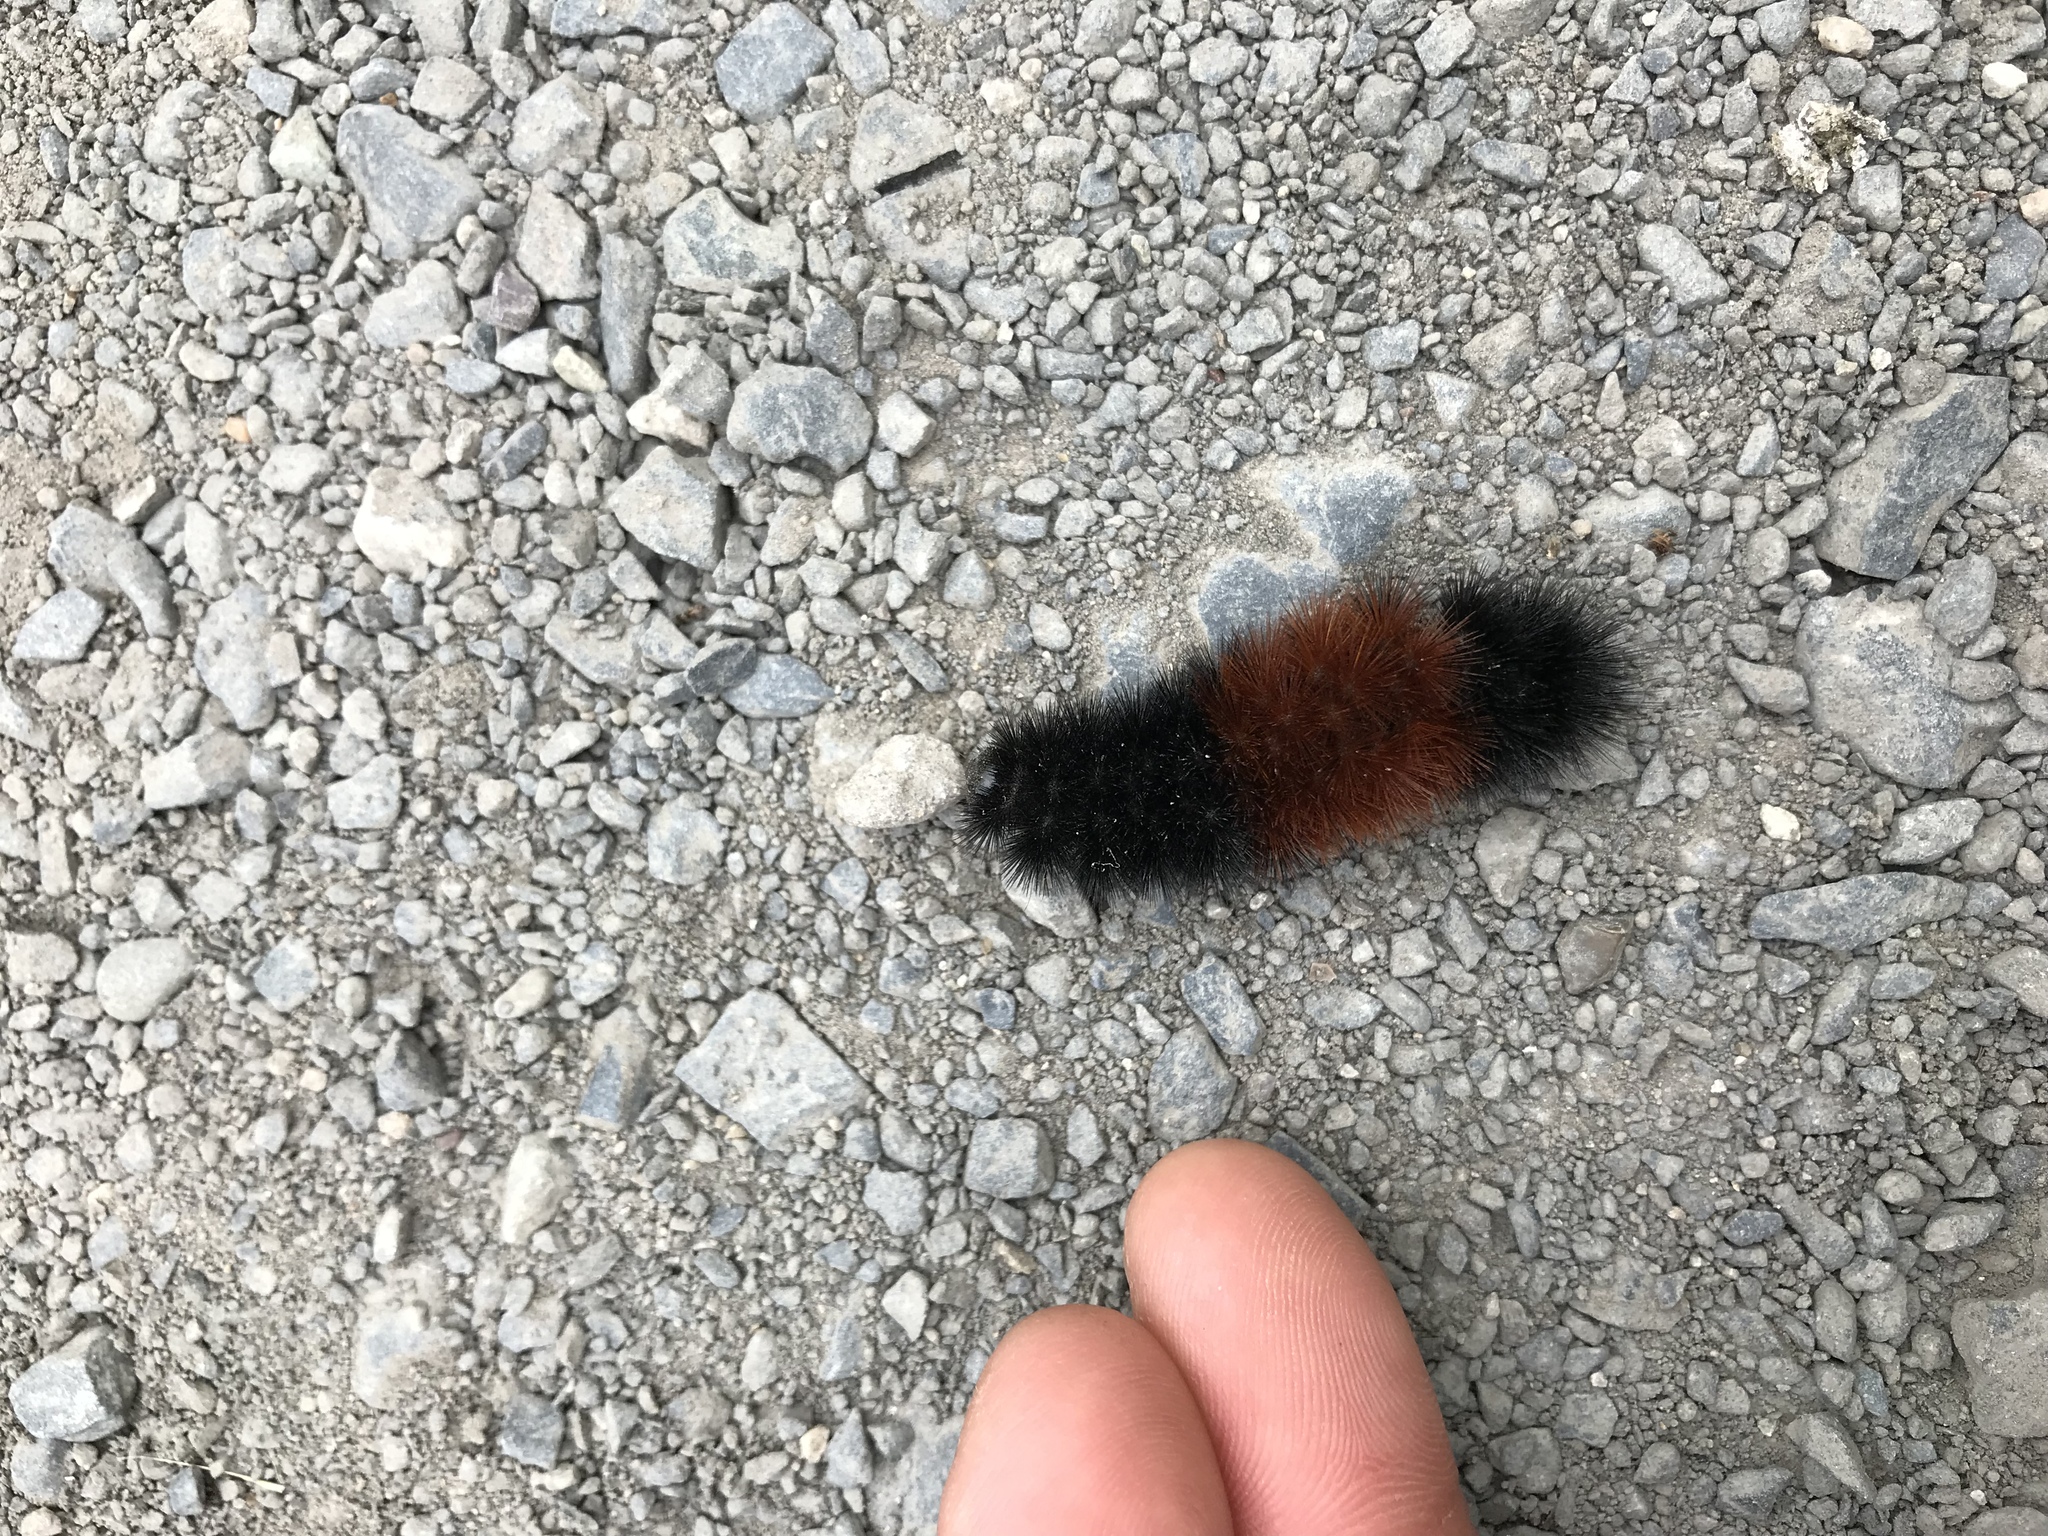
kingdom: Animalia
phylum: Arthropoda
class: Insecta
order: Lepidoptera
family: Erebidae
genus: Pyrrharctia
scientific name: Pyrrharctia isabella
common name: Isabella tiger moth
